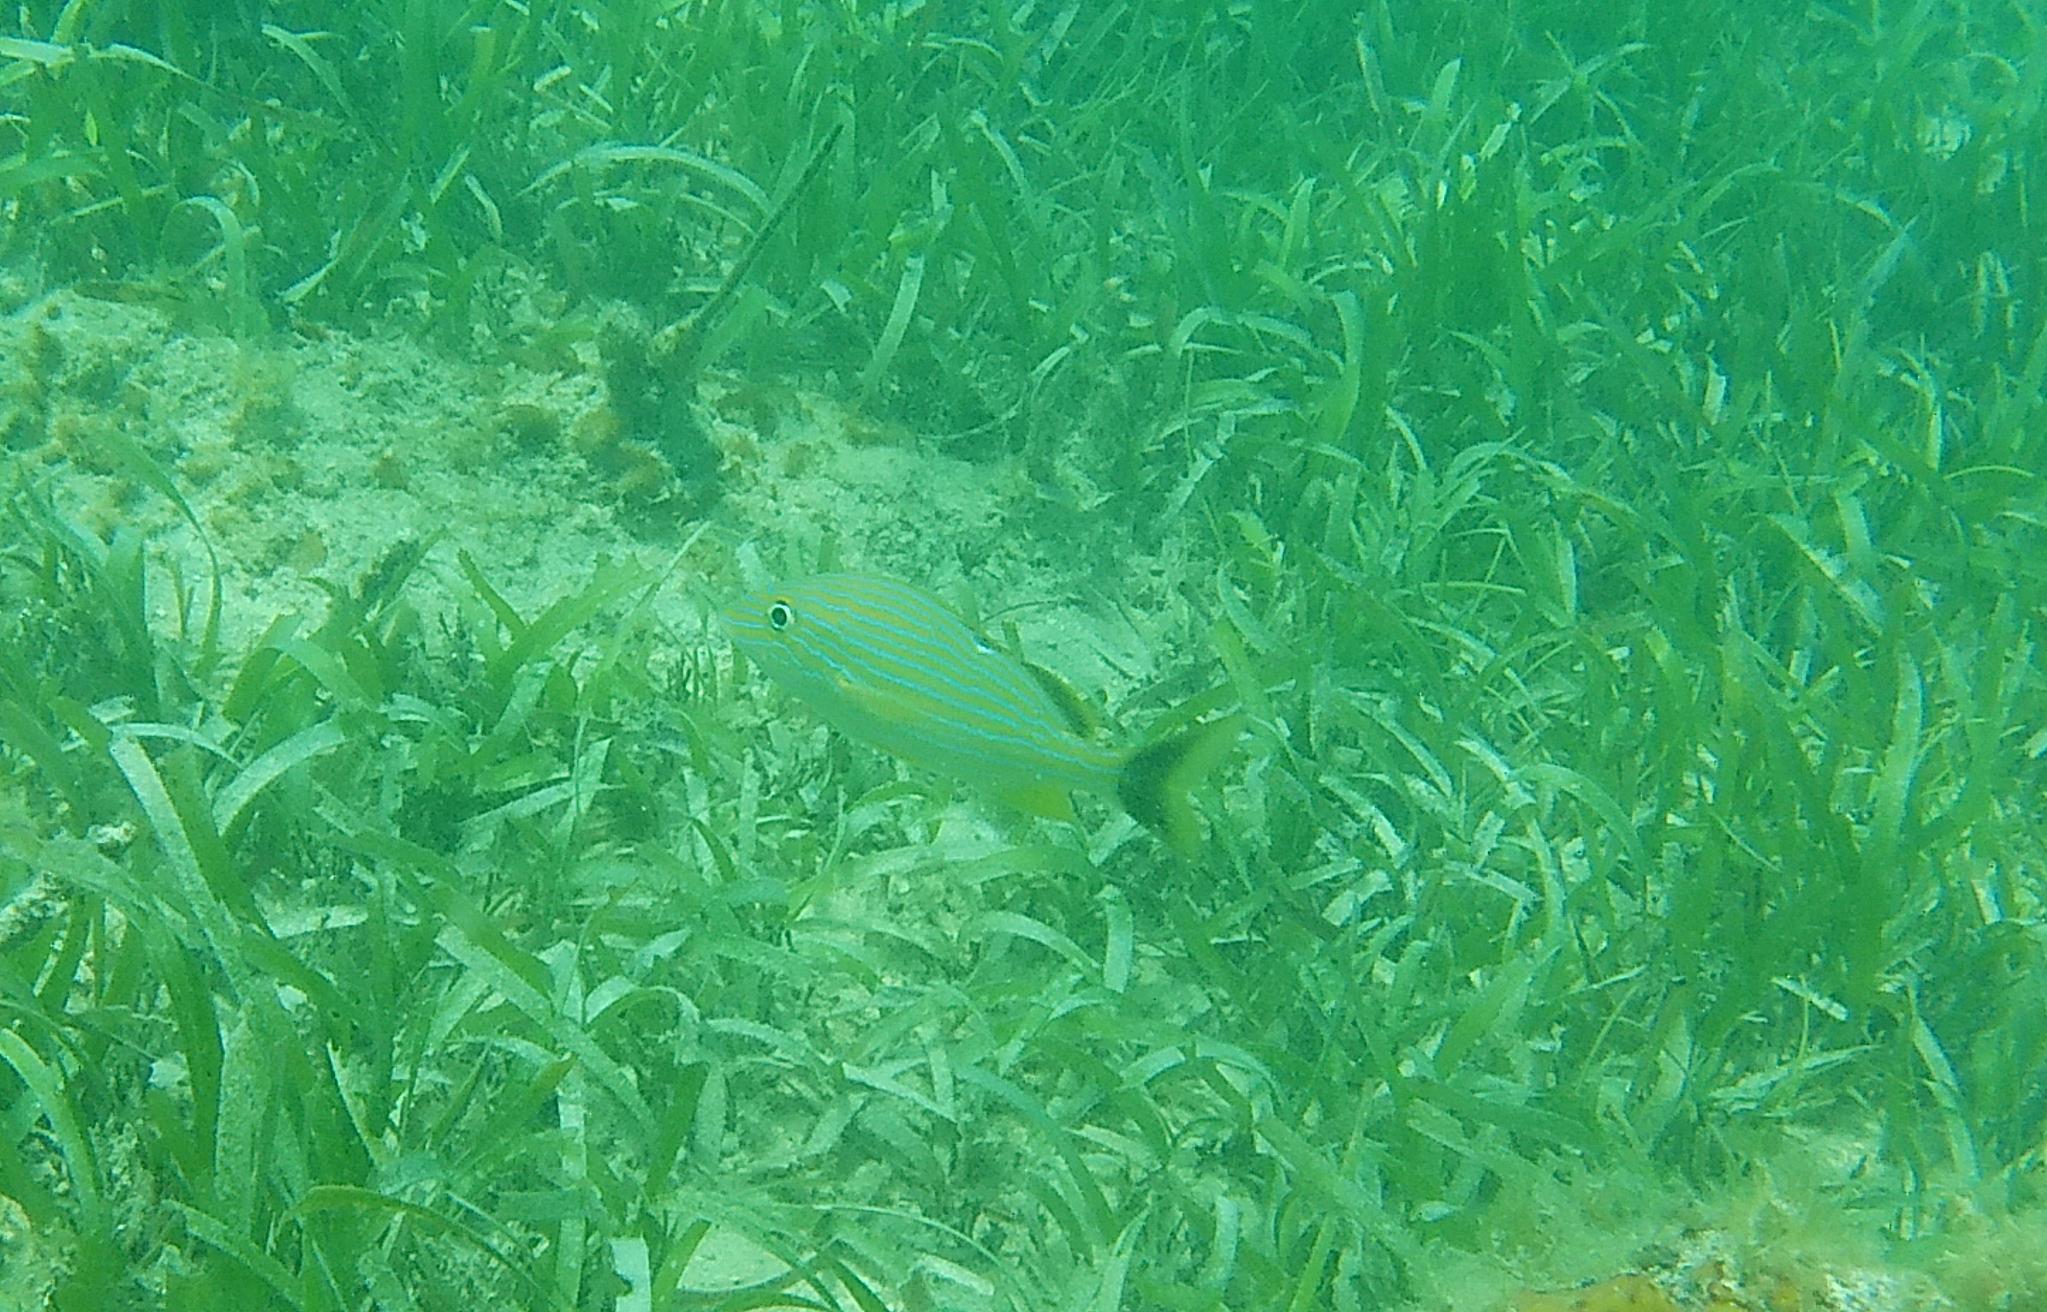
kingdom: Animalia
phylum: Chordata
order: Perciformes
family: Haemulidae
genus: Haemulon
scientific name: Haemulon sciurus
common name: Bluestriped grunt
